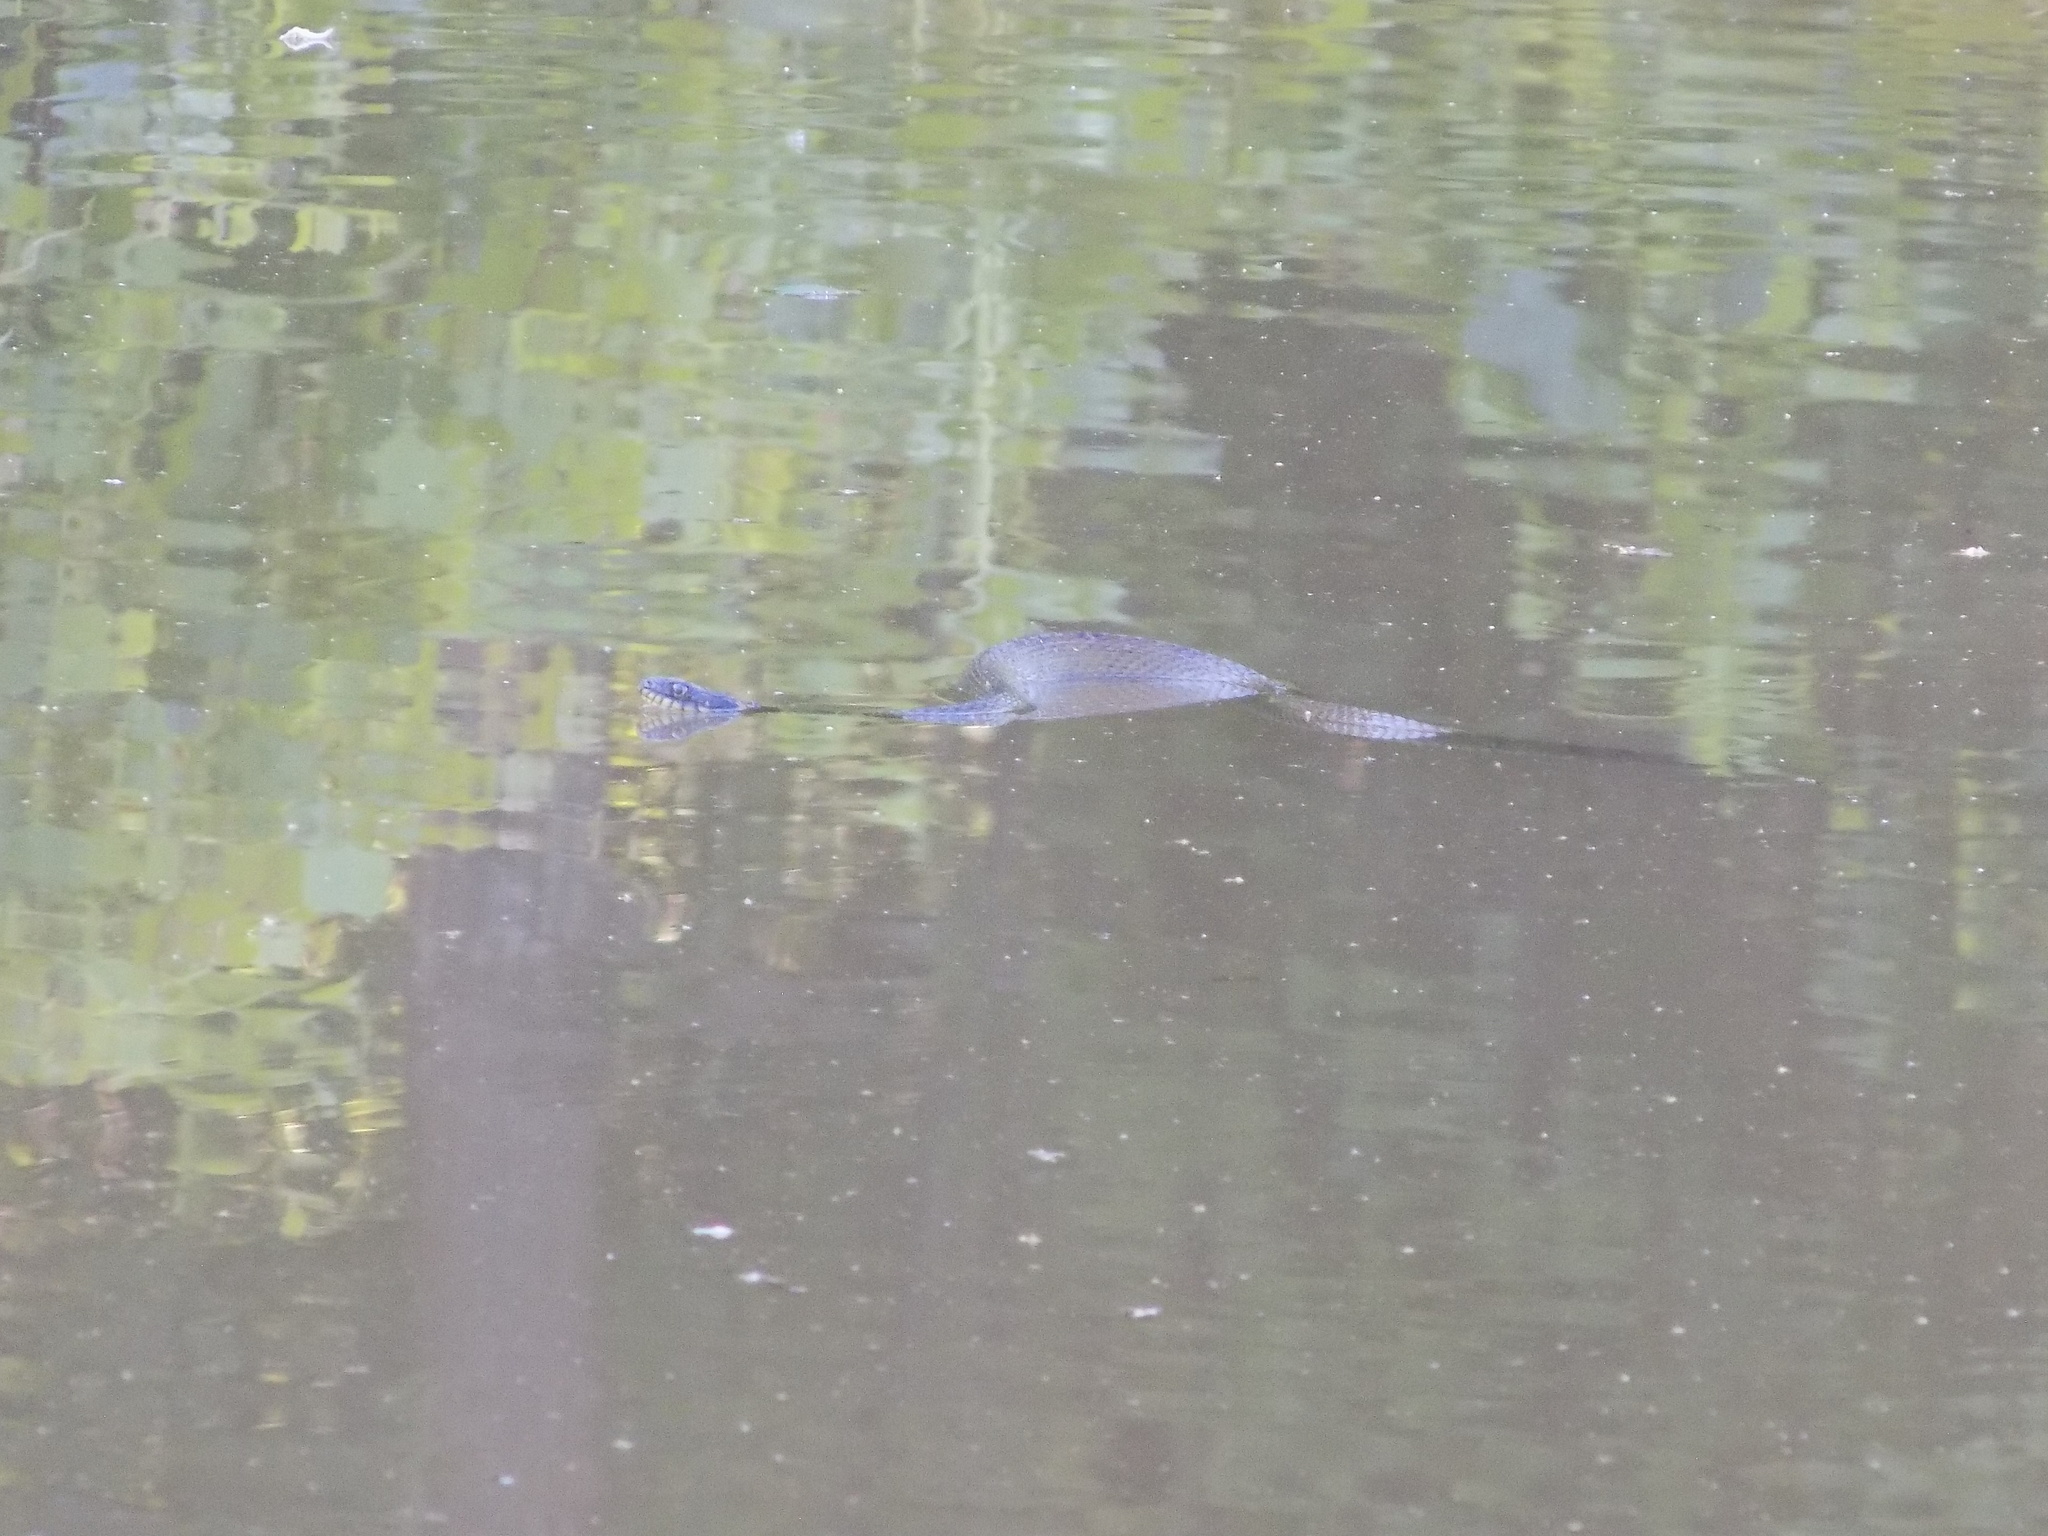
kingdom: Animalia
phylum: Chordata
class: Squamata
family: Colubridae
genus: Nerodia
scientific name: Nerodia erythrogaster
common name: Plainbelly water snake
